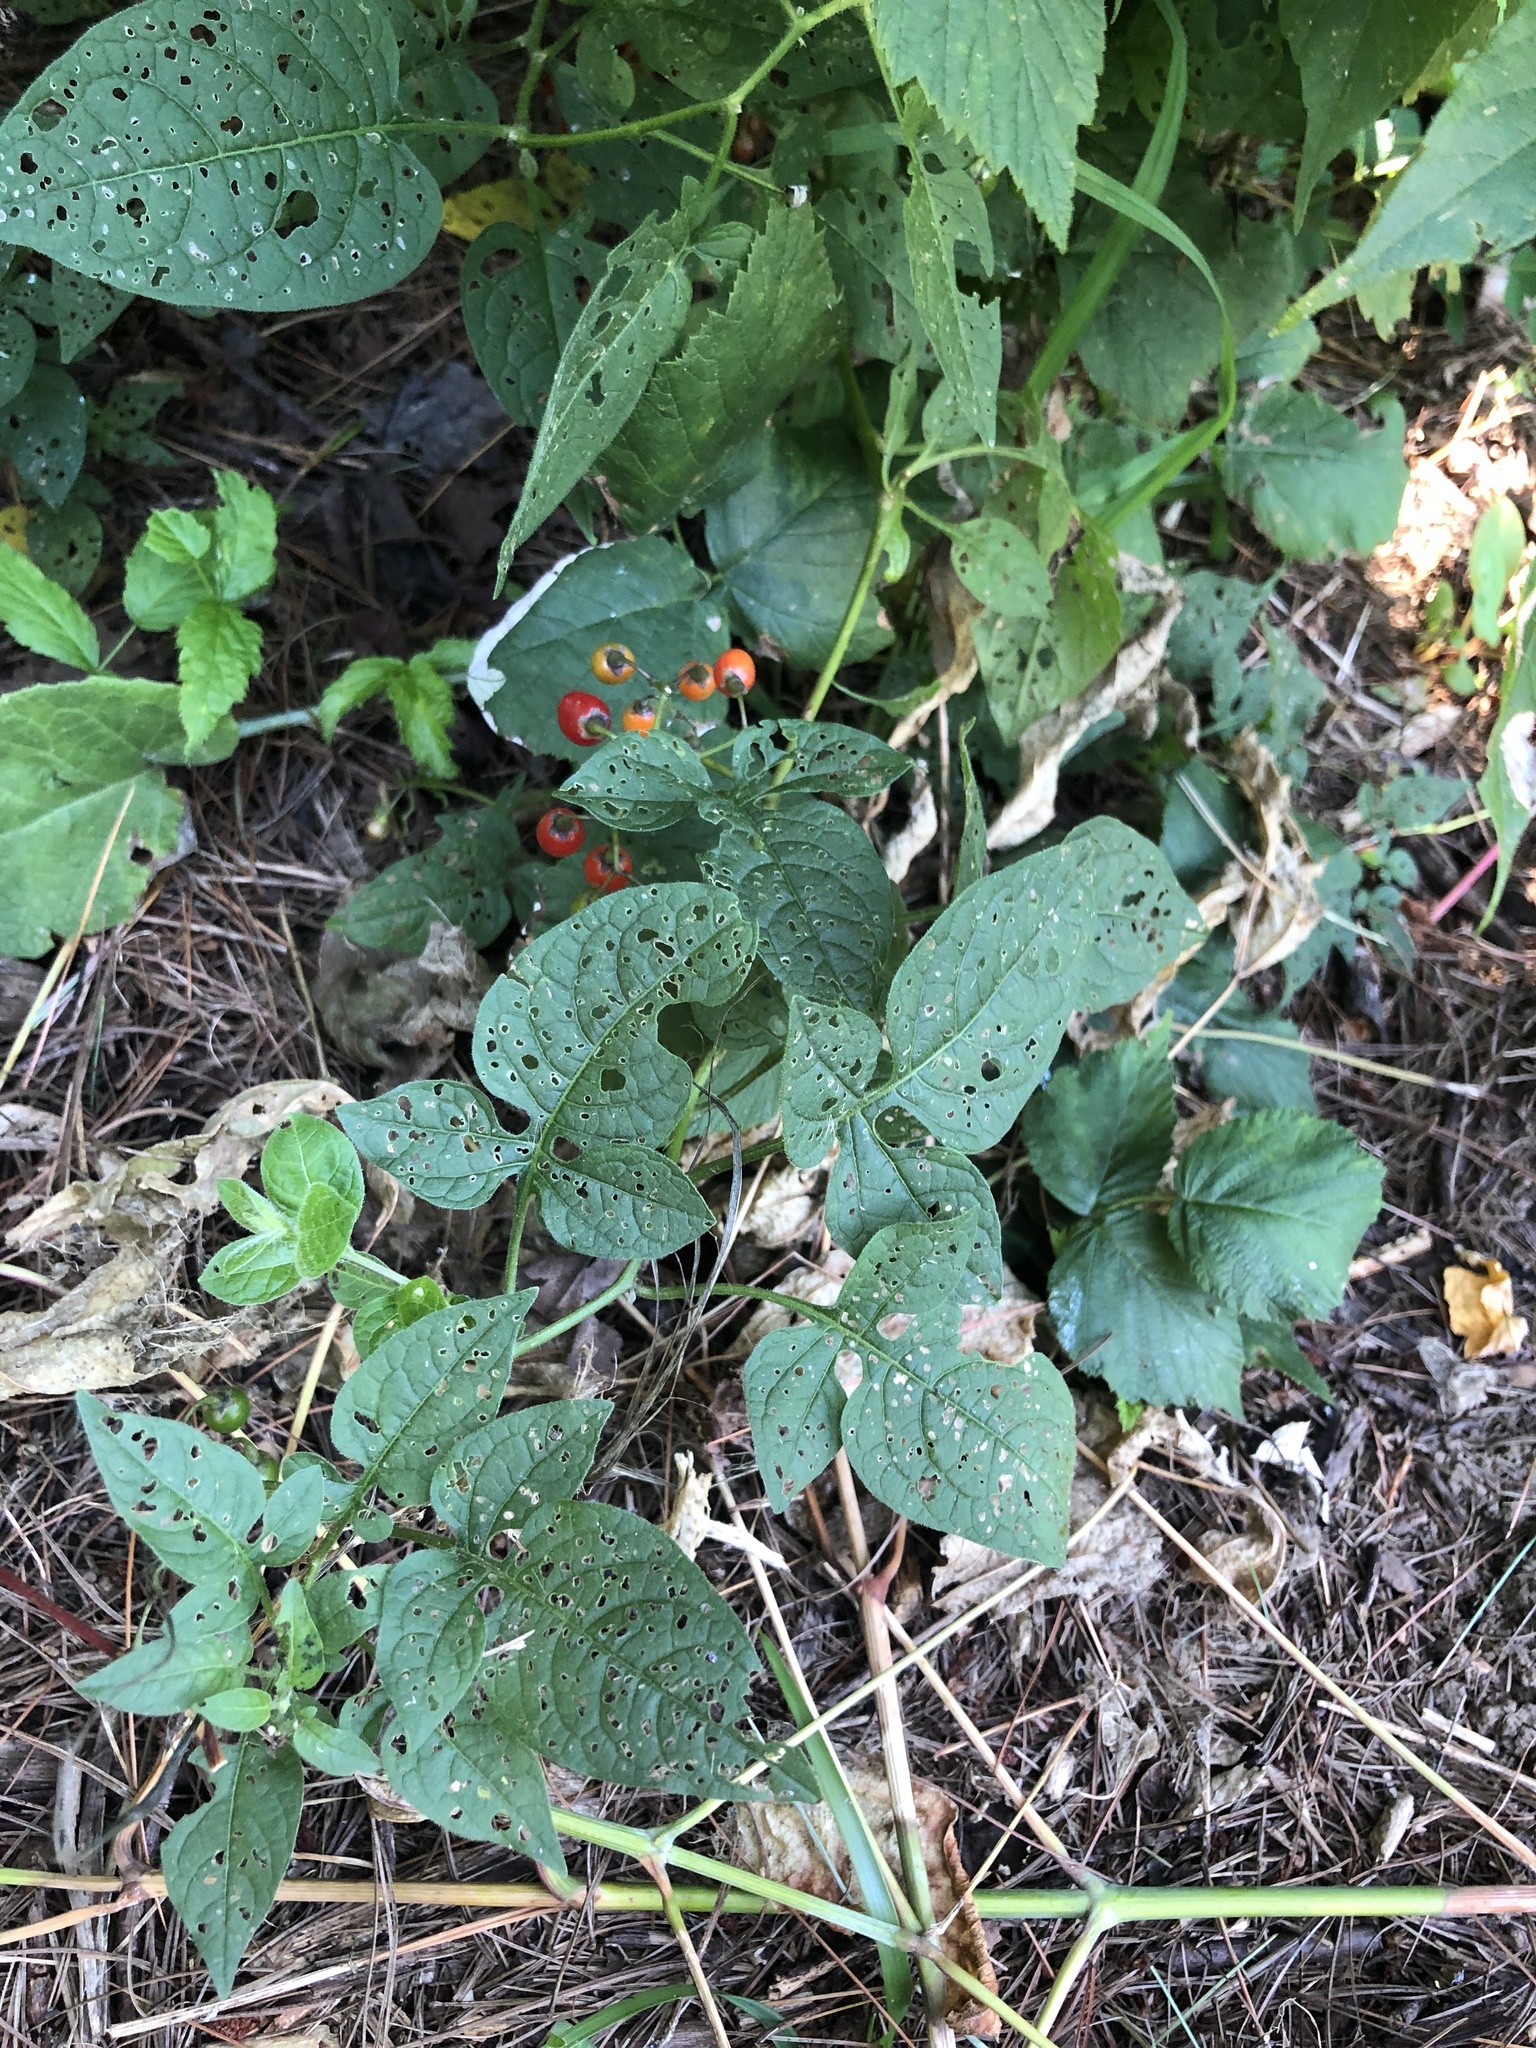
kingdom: Plantae
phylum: Tracheophyta
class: Magnoliopsida
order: Solanales
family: Solanaceae
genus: Solanum
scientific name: Solanum dulcamara
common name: Climbing nightshade
